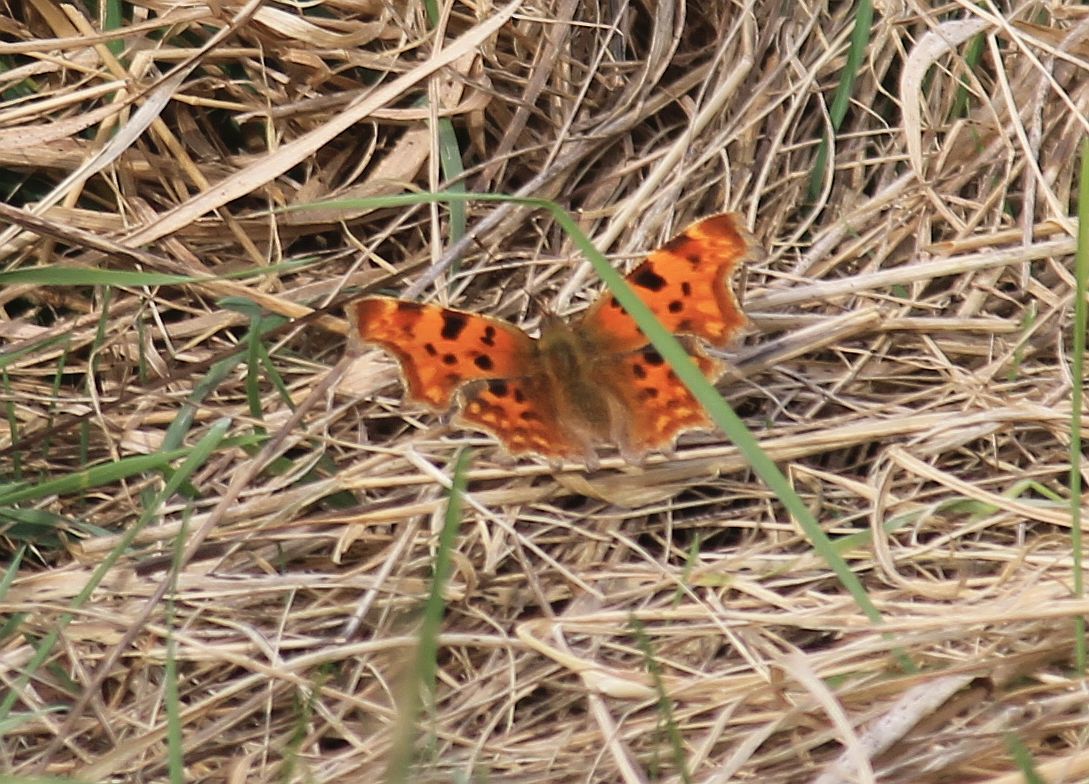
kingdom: Animalia
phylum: Arthropoda
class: Insecta
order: Lepidoptera
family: Nymphalidae
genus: Polygonia
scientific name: Polygonia c-album
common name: Comma
